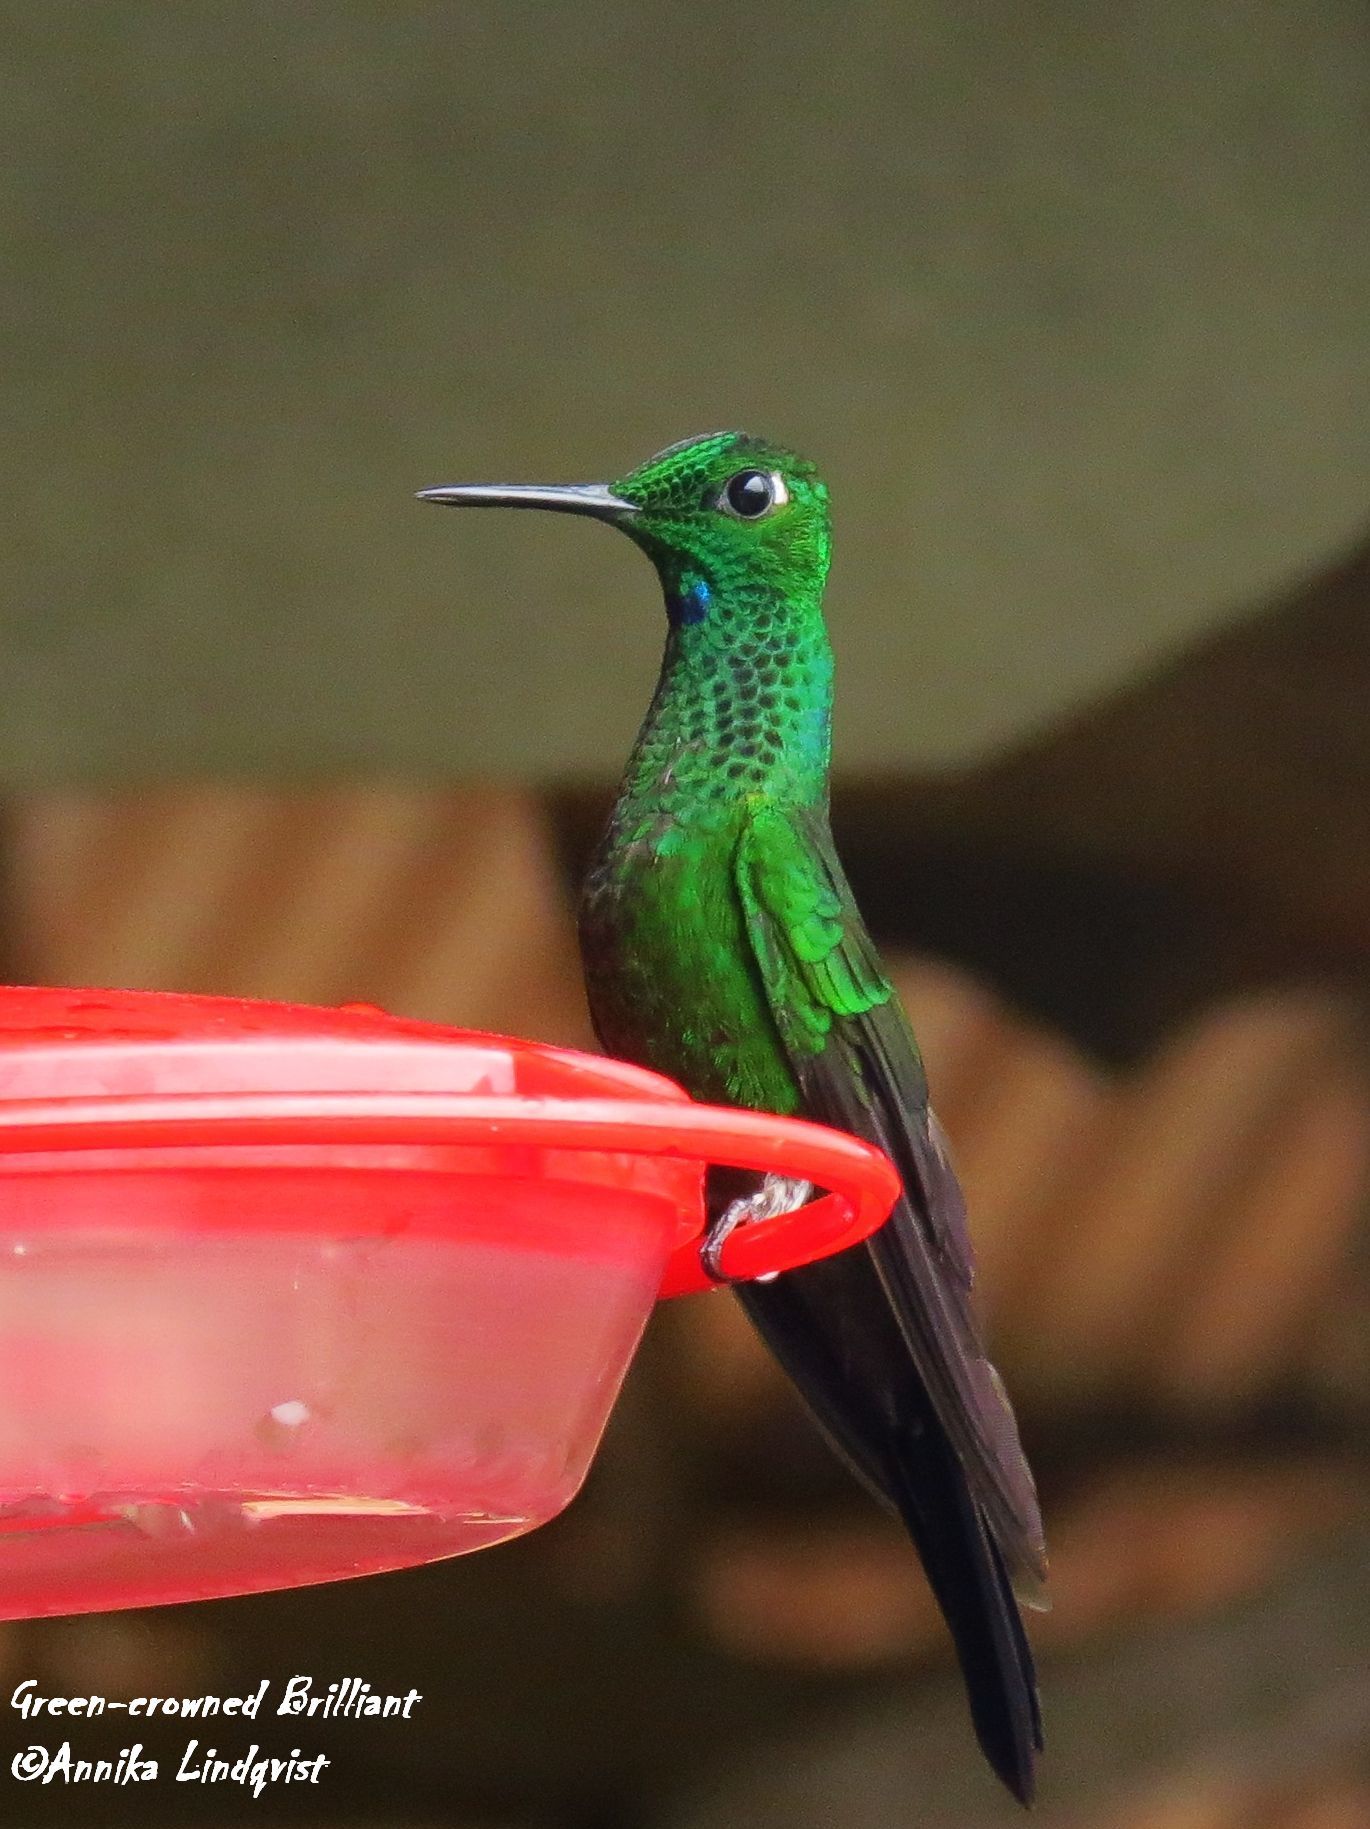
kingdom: Animalia
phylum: Chordata
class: Aves
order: Apodiformes
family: Trochilidae
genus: Heliodoxa
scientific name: Heliodoxa jacula
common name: Green-crowned brilliant
